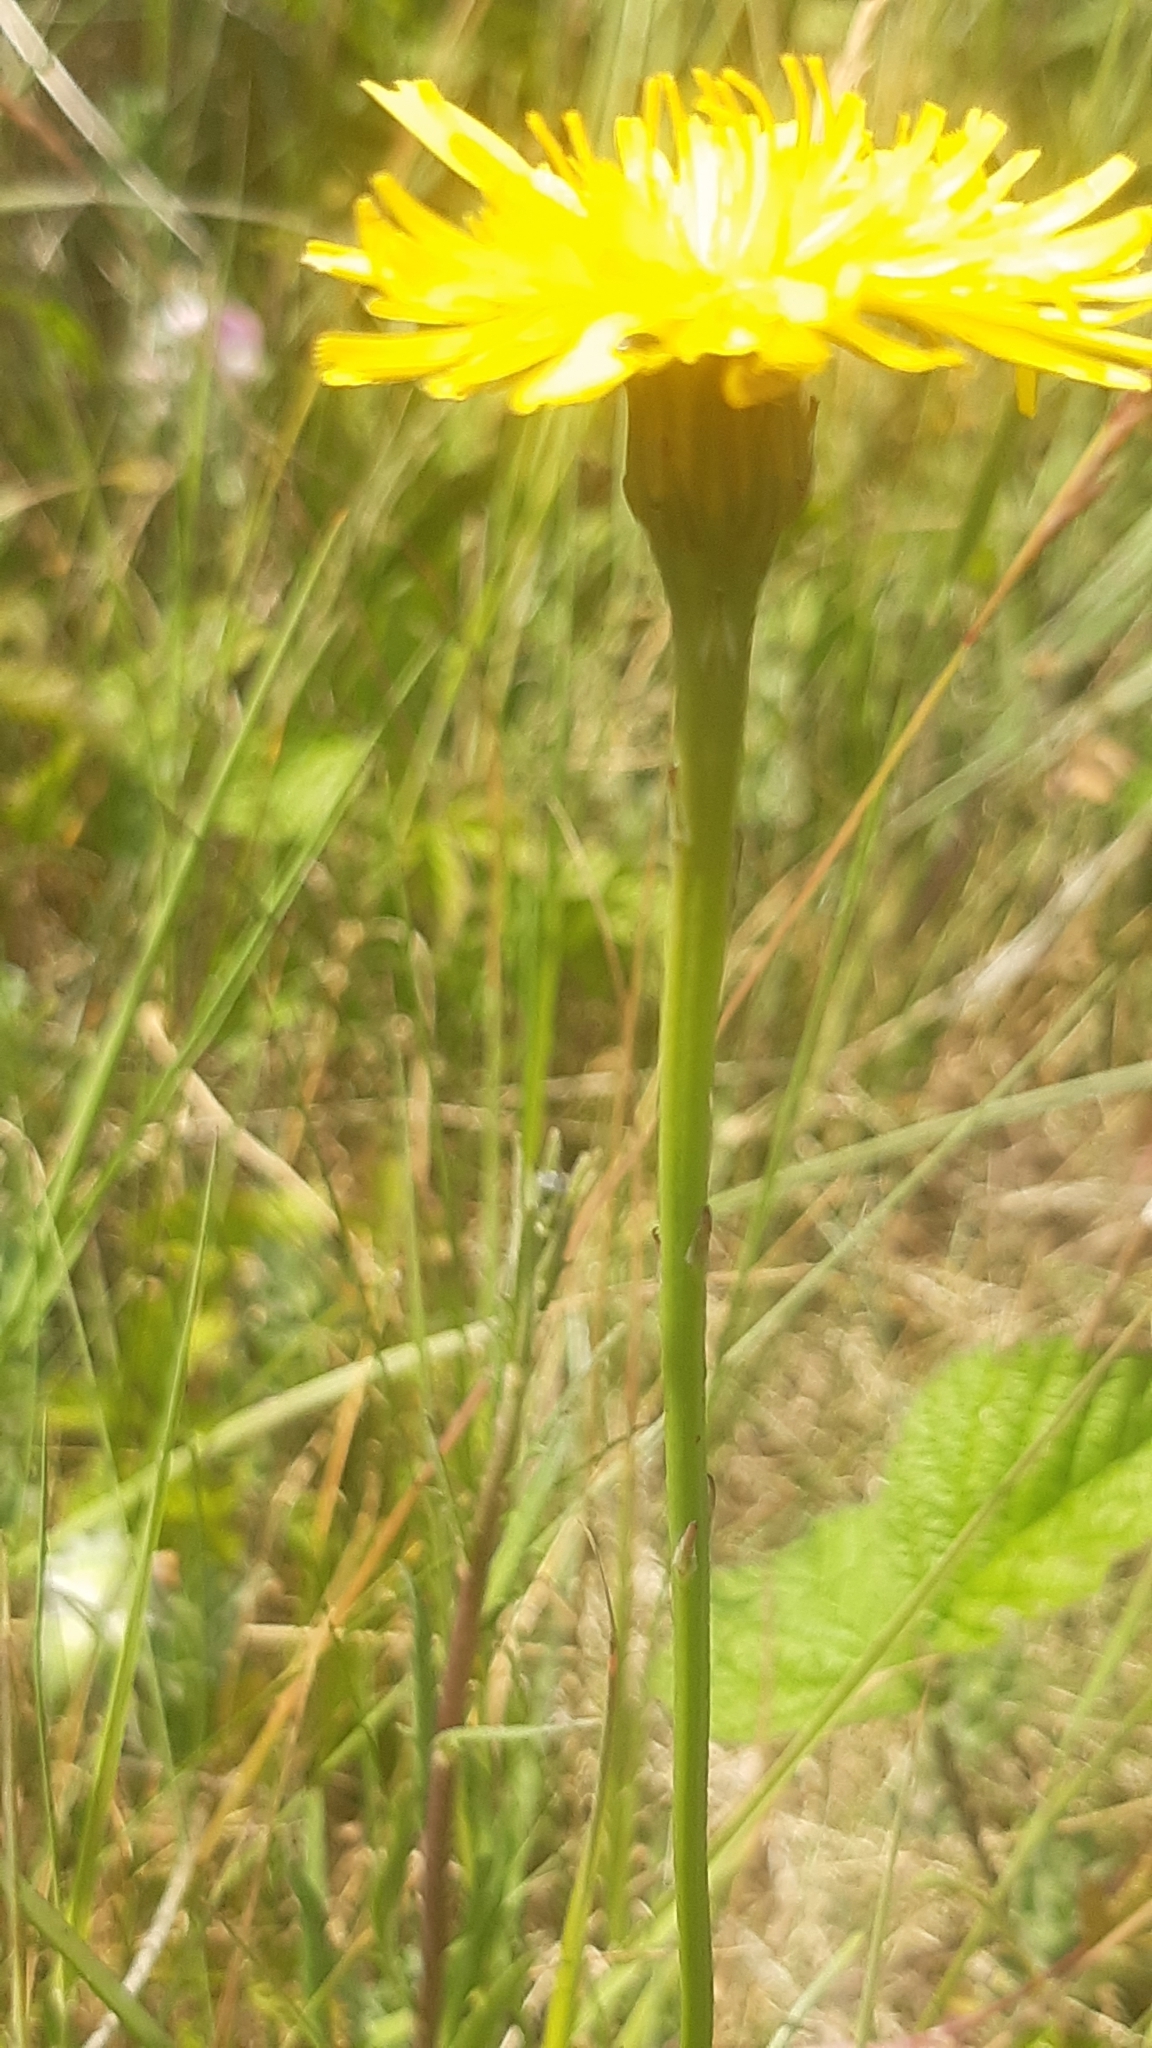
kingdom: Plantae
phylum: Tracheophyta
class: Magnoliopsida
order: Asterales
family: Asteraceae
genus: Hypochaeris
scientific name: Hypochaeris radicata
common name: Flatweed
